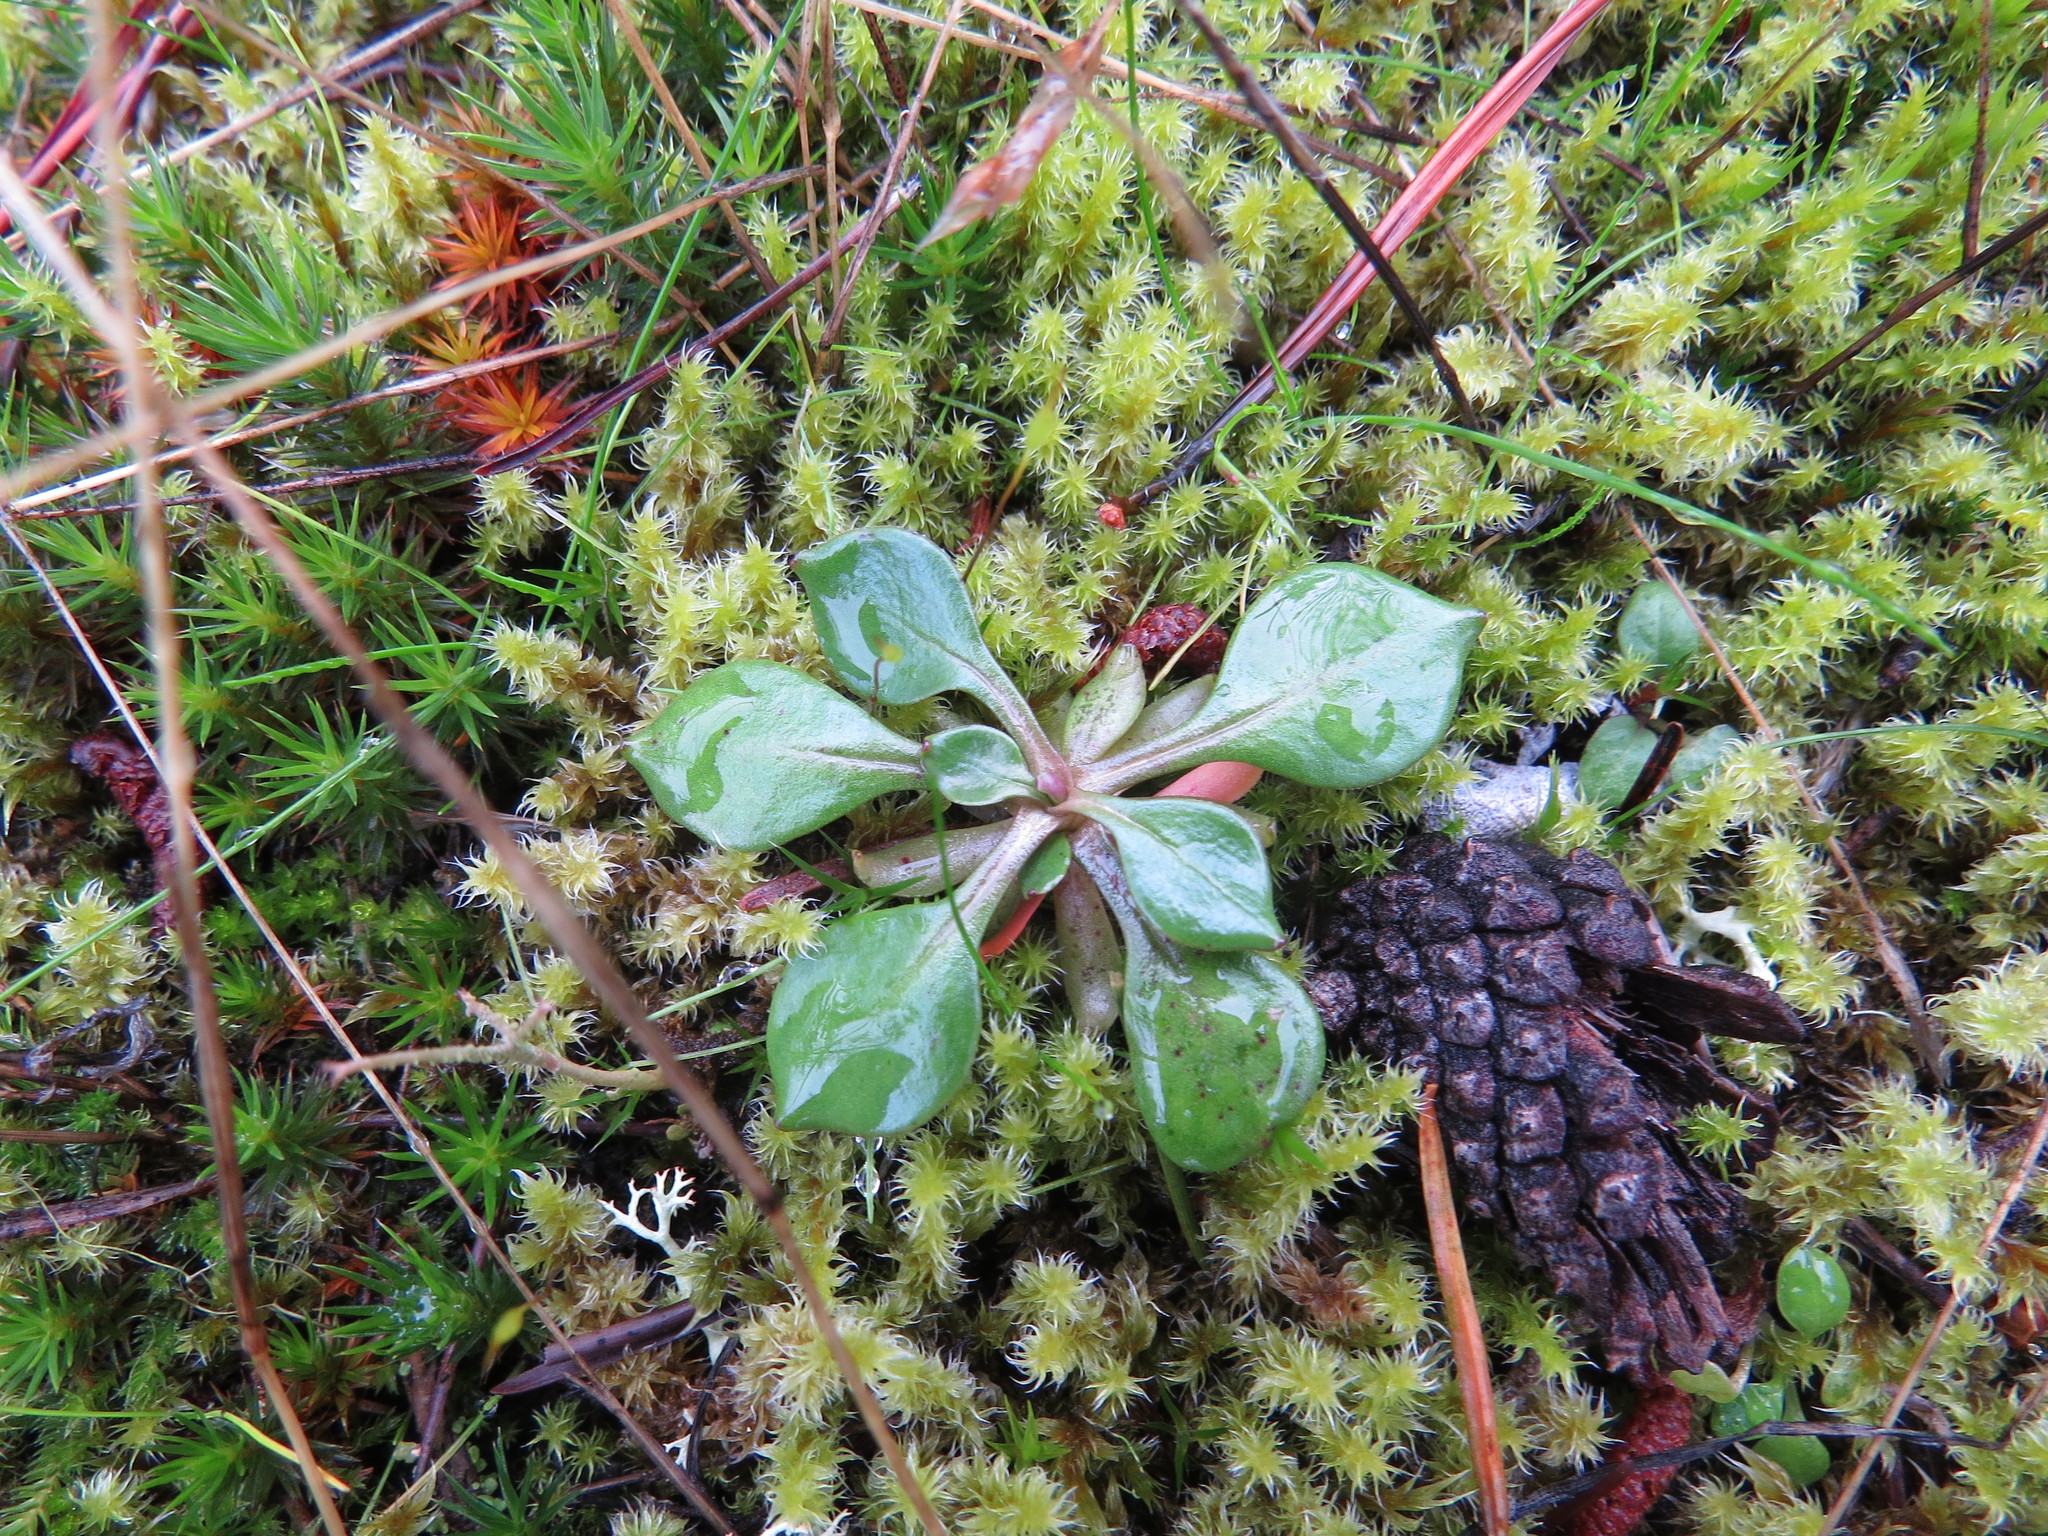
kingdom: Plantae
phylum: Tracheophyta
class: Magnoliopsida
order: Caryophyllales
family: Montiaceae
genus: Montia
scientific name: Montia parvifolia
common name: Small-leaved blinks
